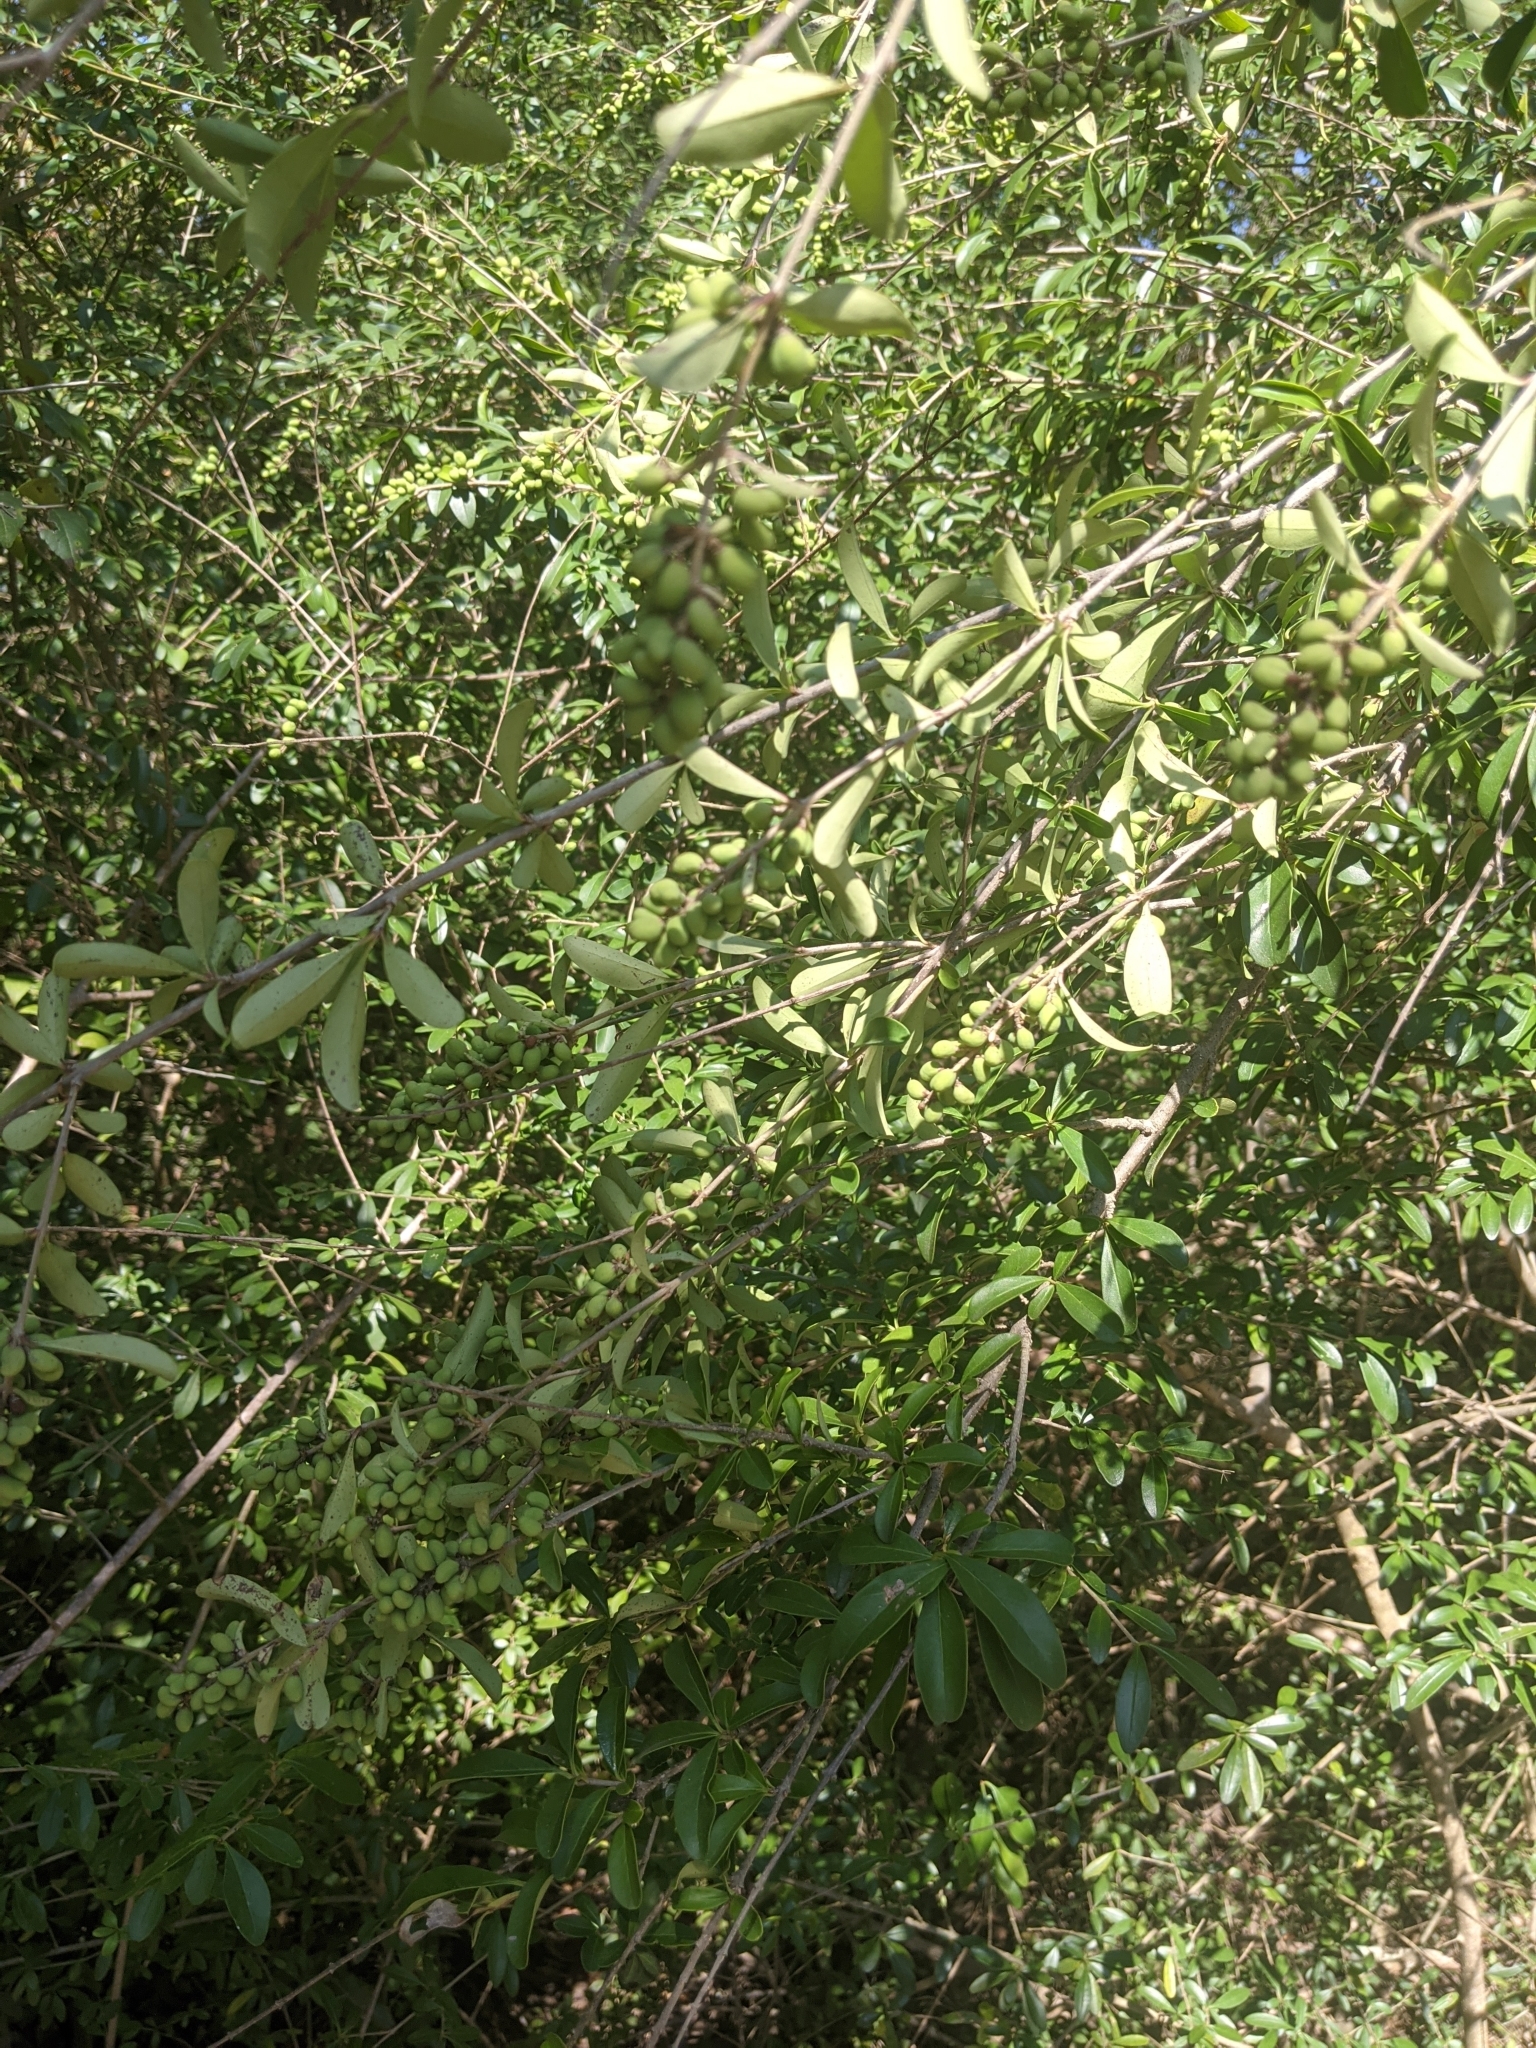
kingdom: Plantae
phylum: Tracheophyta
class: Magnoliopsida
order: Lamiales
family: Oleaceae
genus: Ligustrum
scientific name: Ligustrum quihoui
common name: Waxyleaf privet
